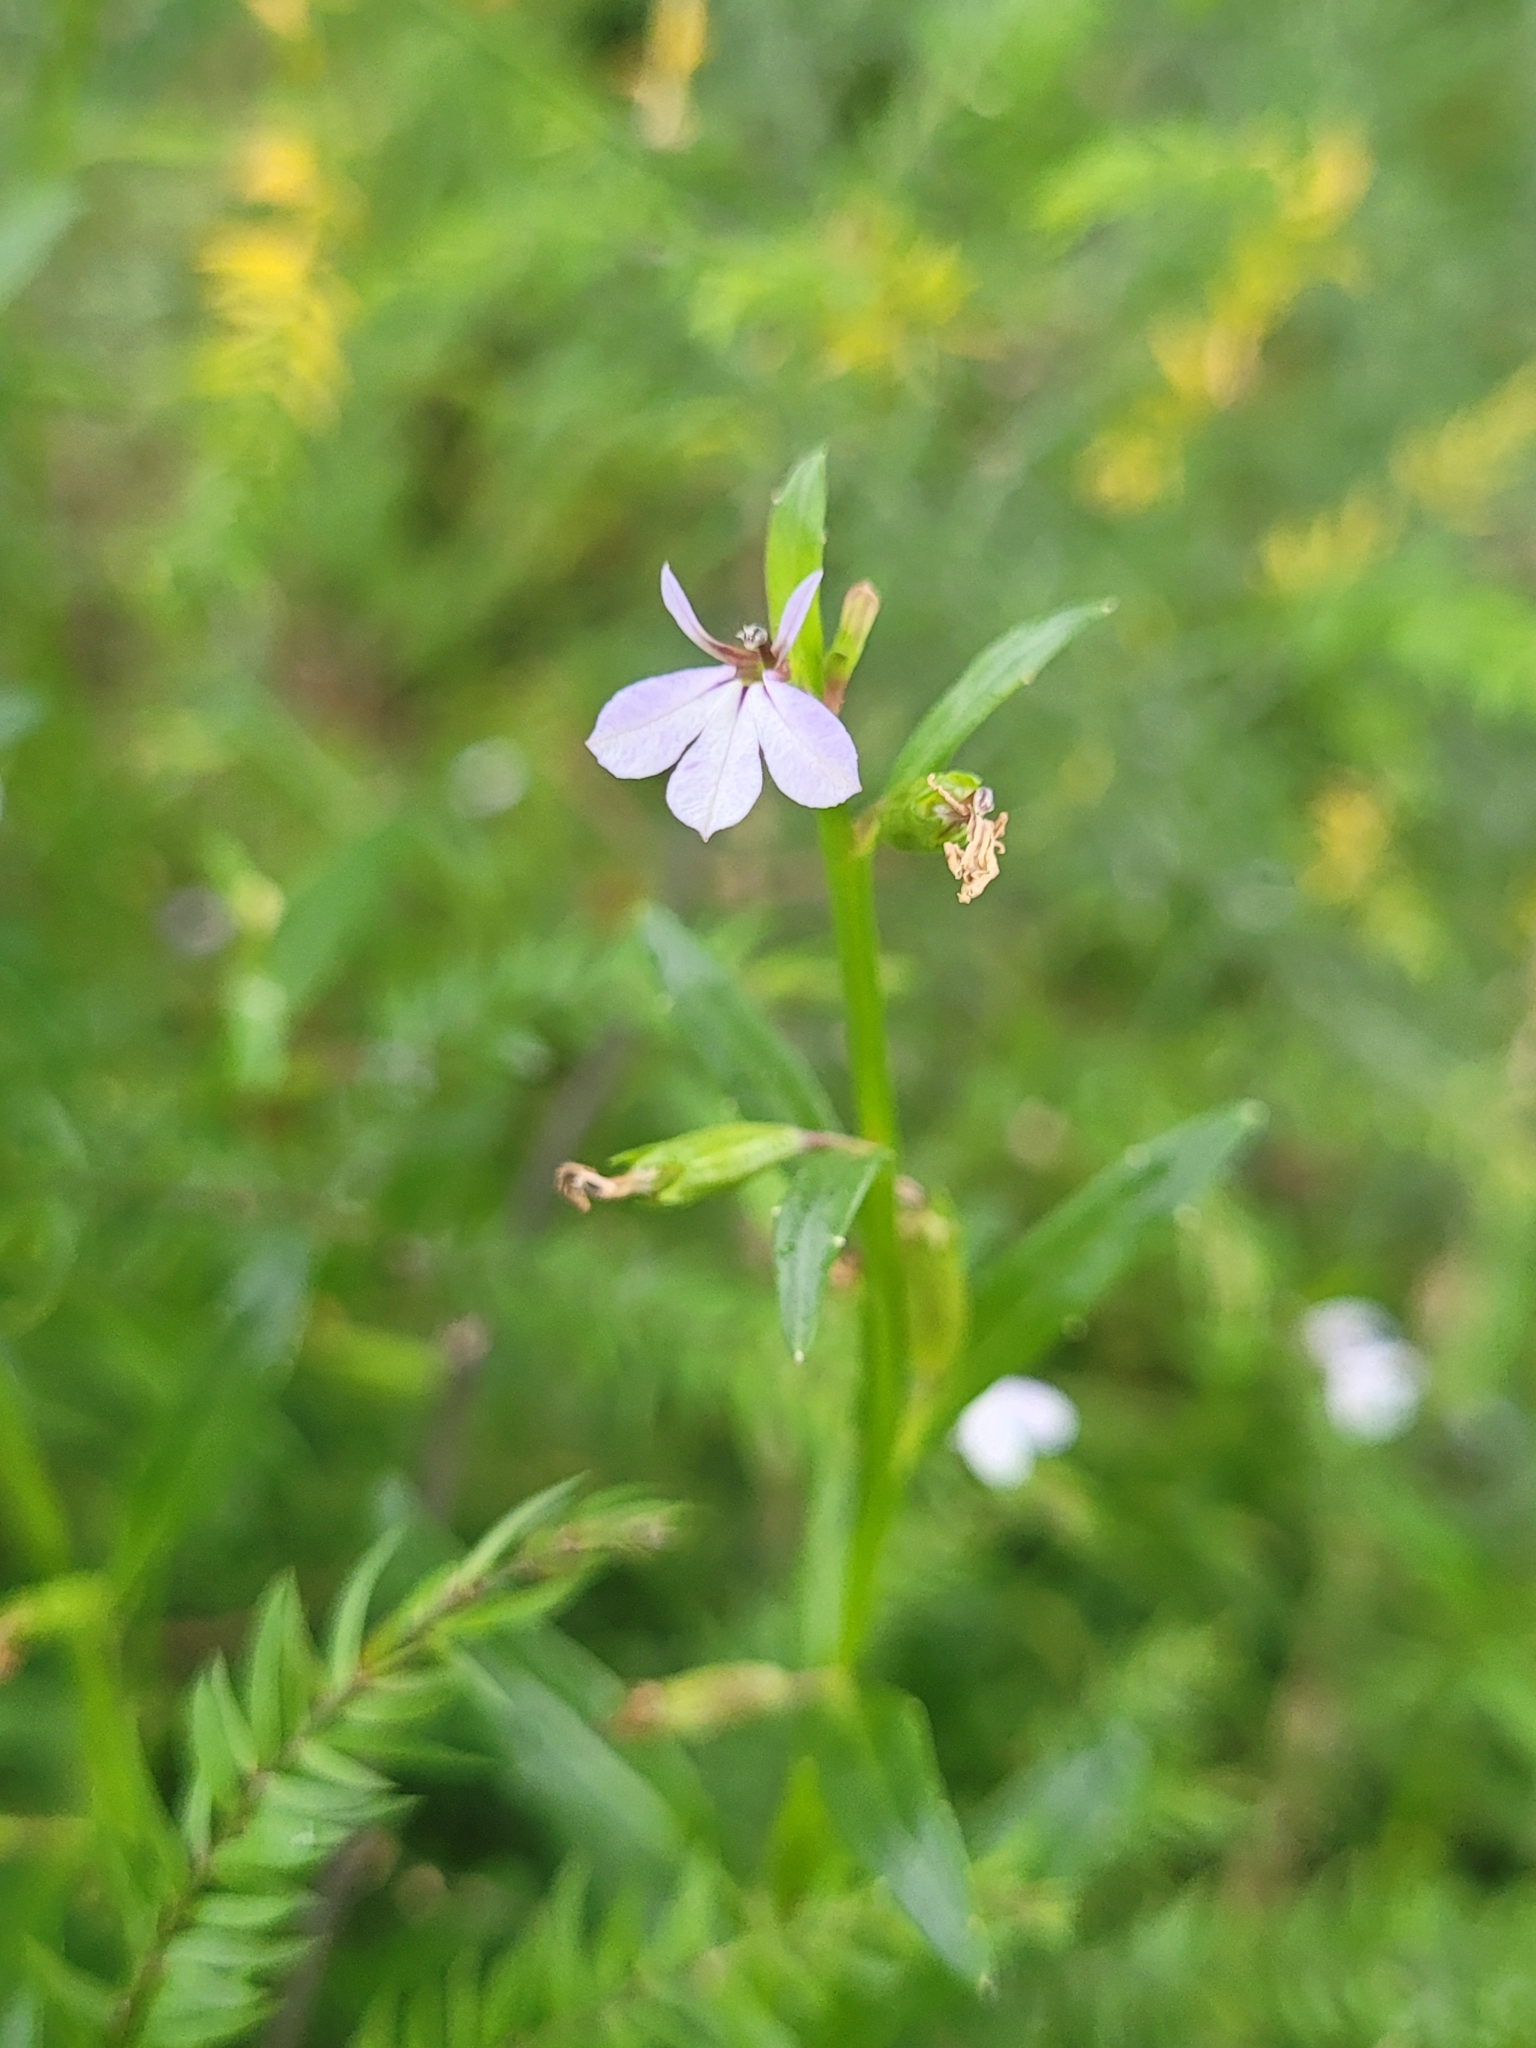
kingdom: Plantae
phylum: Tracheophyta
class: Magnoliopsida
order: Asterales
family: Campanulaceae
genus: Lobelia
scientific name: Lobelia anceps
